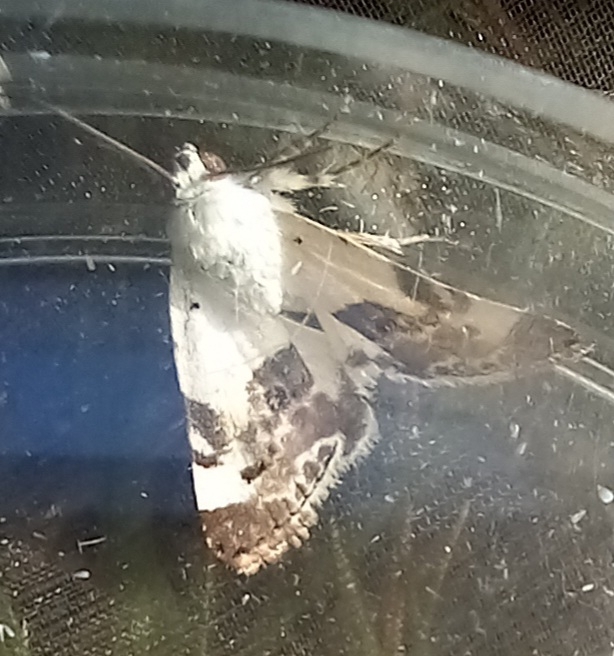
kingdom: Animalia
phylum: Arthropoda
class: Insecta
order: Lepidoptera
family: Noctuidae
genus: Acontia
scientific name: Acontia lucida
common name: Pale shoulder
